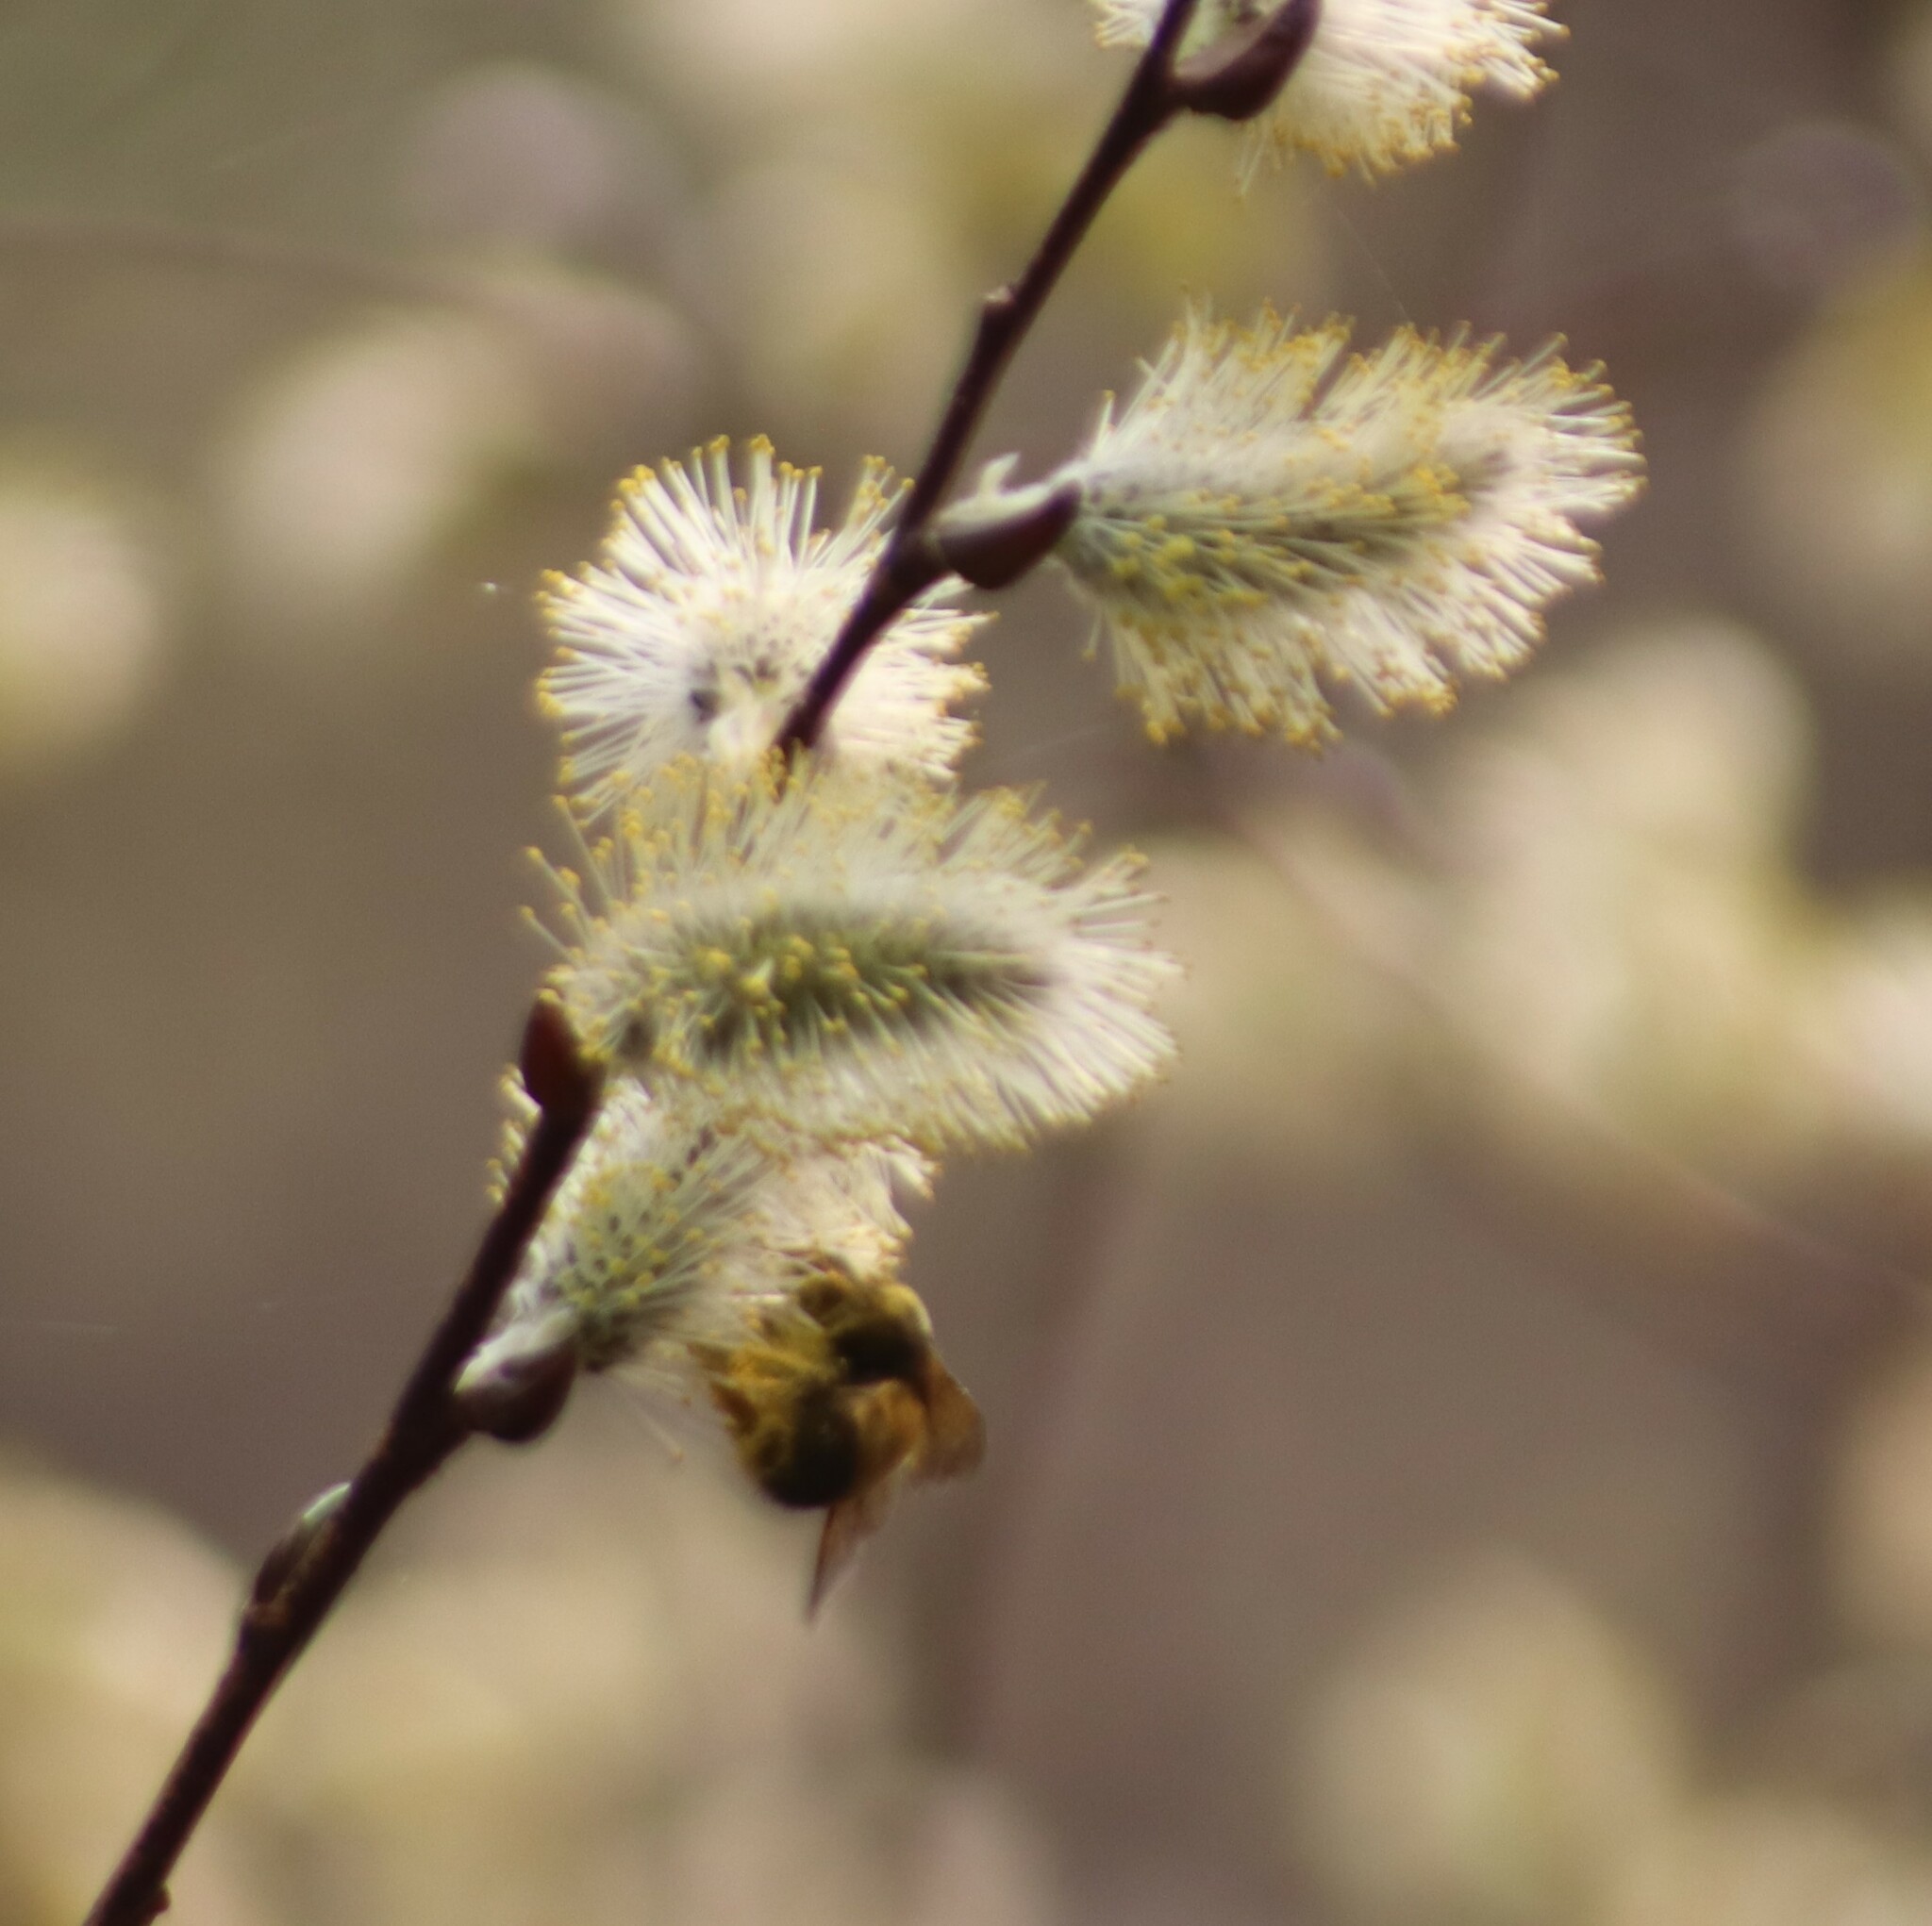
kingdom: Animalia
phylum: Arthropoda
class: Insecta
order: Hymenoptera
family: Apidae
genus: Bombus
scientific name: Bombus terricola
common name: Yellow-banded bumble bee
